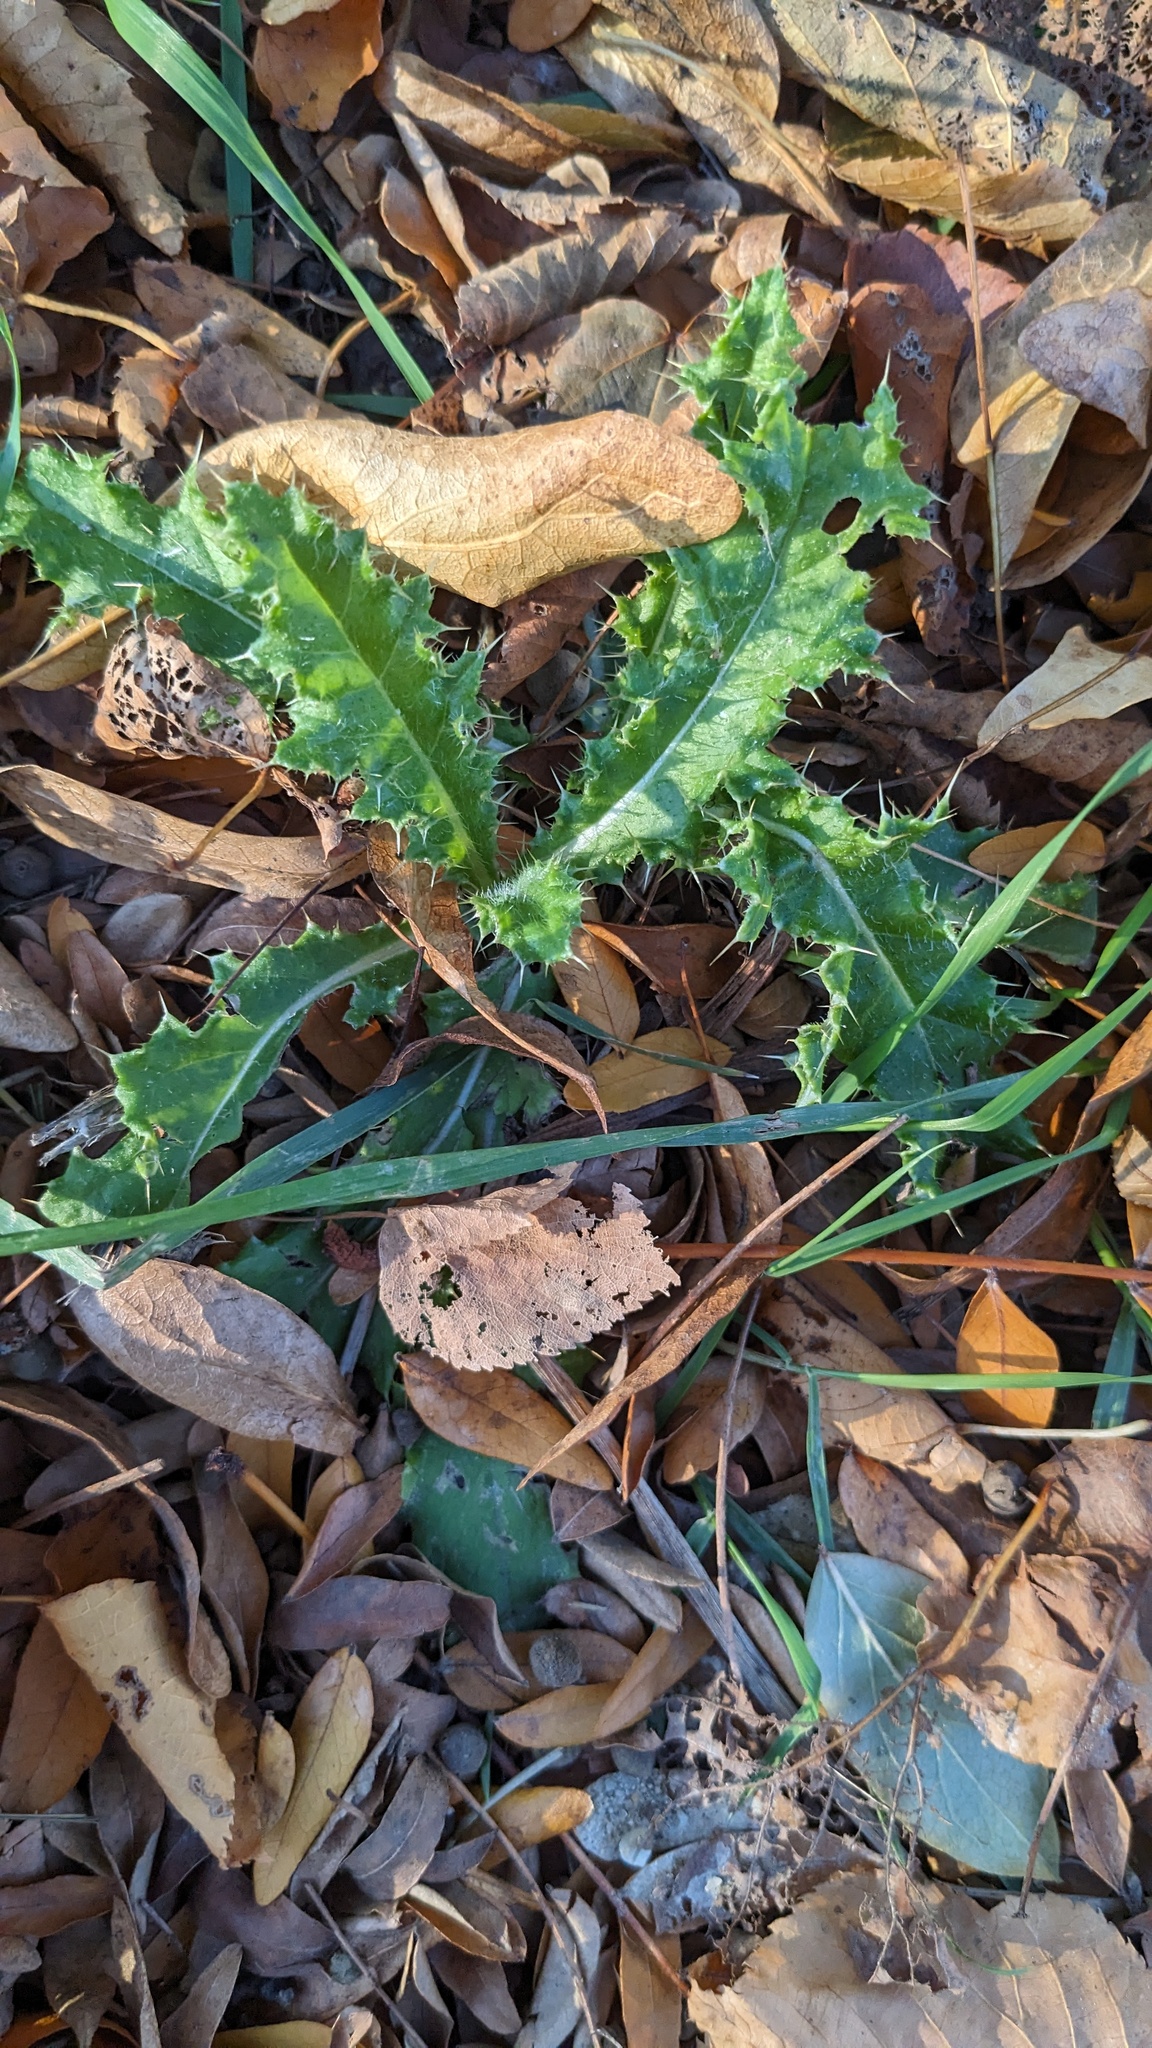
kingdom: Plantae
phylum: Tracheophyta
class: Magnoliopsida
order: Asterales
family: Asteraceae
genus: Cirsium
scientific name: Cirsium arvense
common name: Creeping thistle
